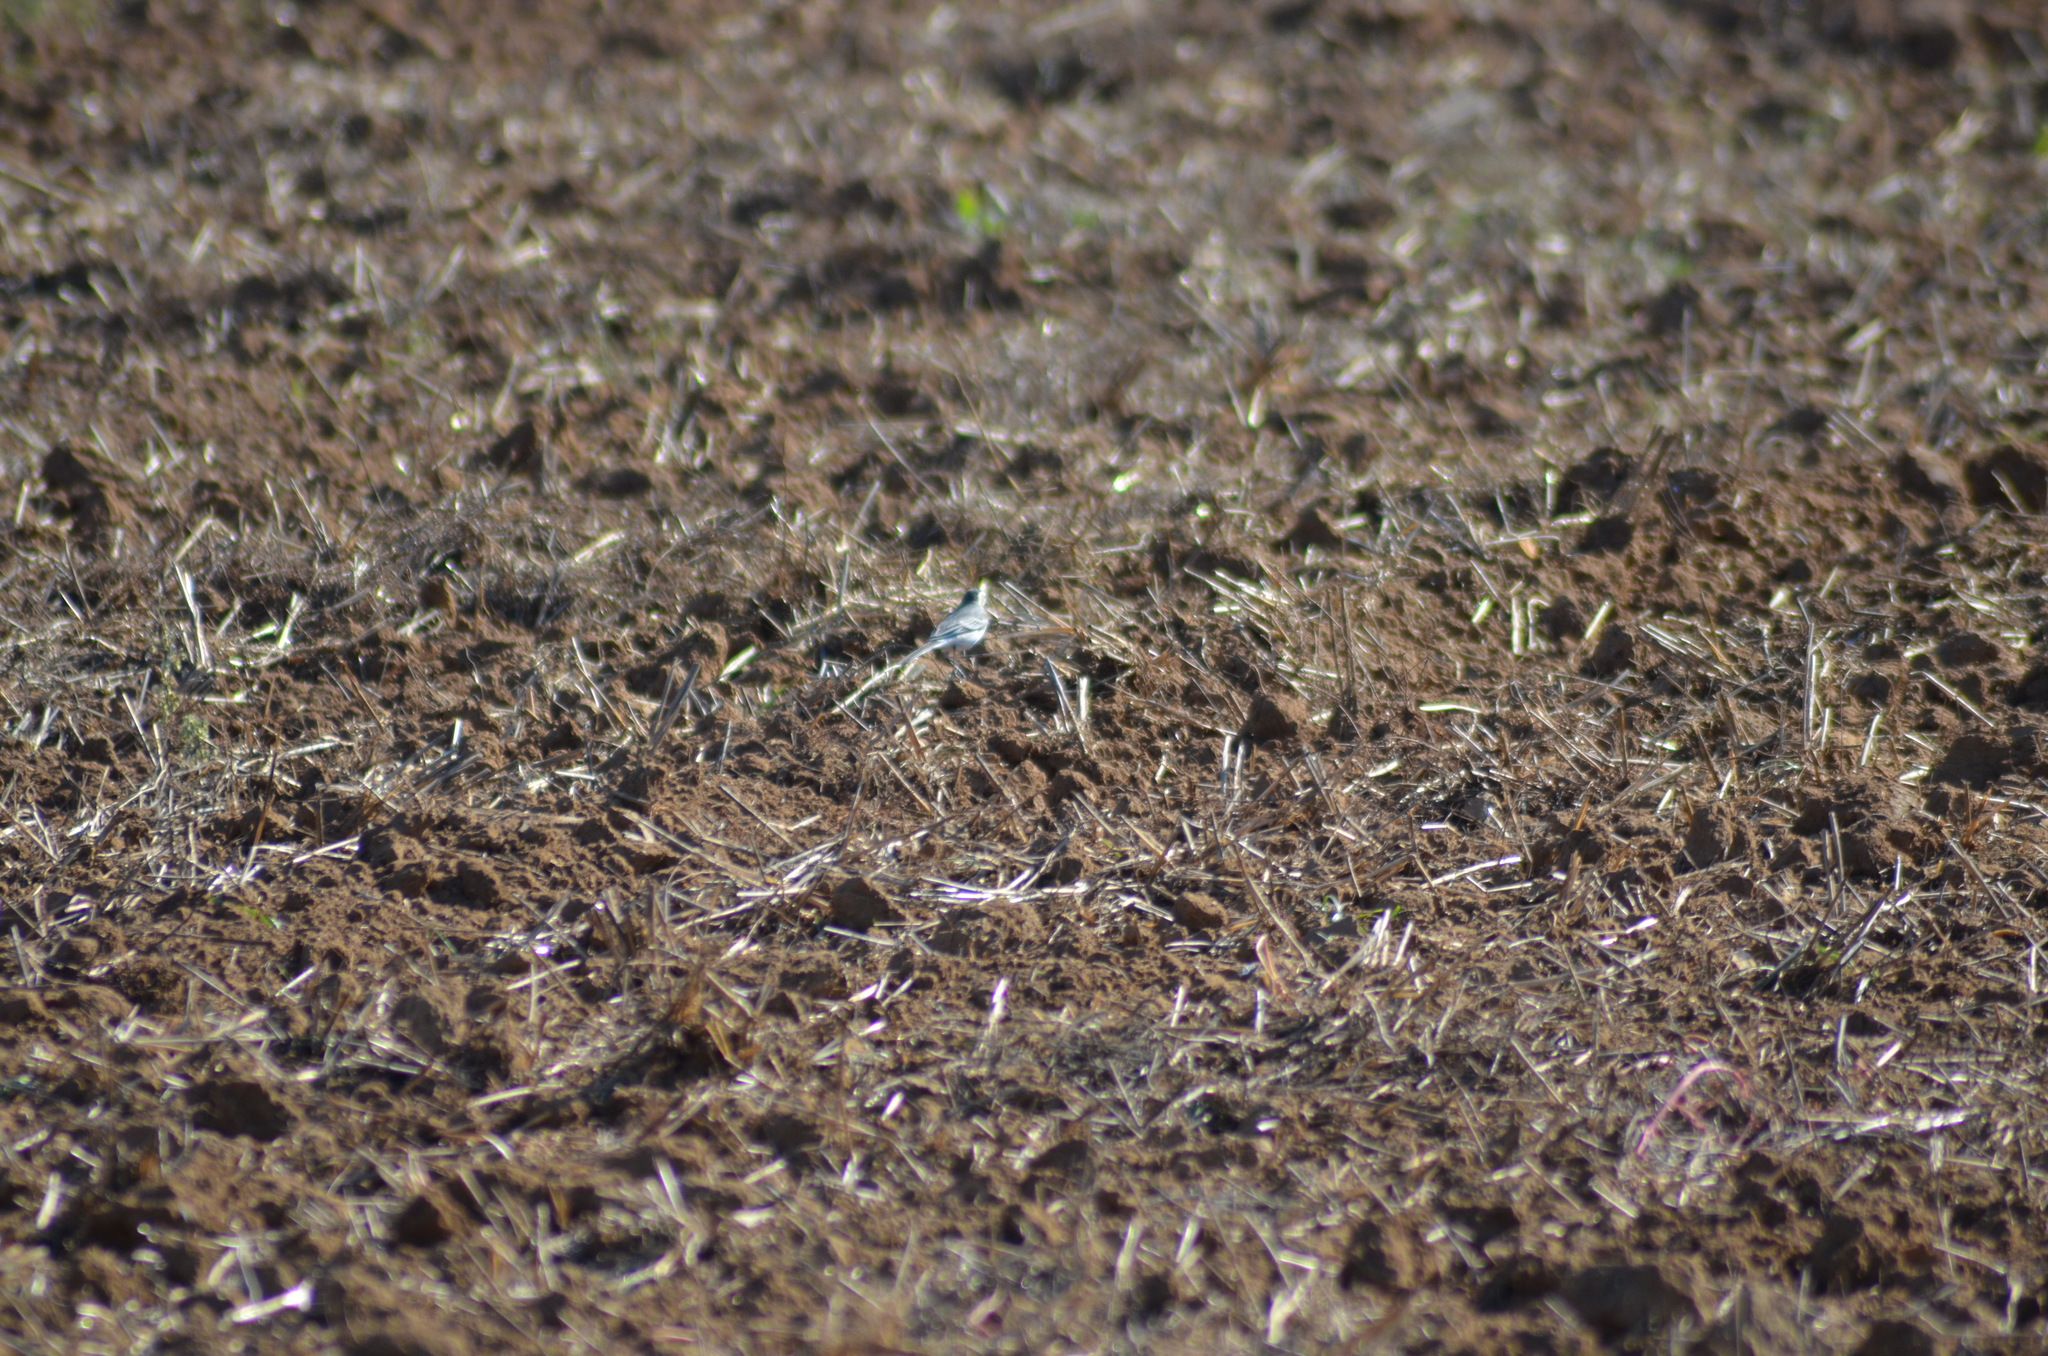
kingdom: Animalia
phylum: Chordata
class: Aves
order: Passeriformes
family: Motacillidae
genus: Motacilla
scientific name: Motacilla alba
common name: White wagtail
